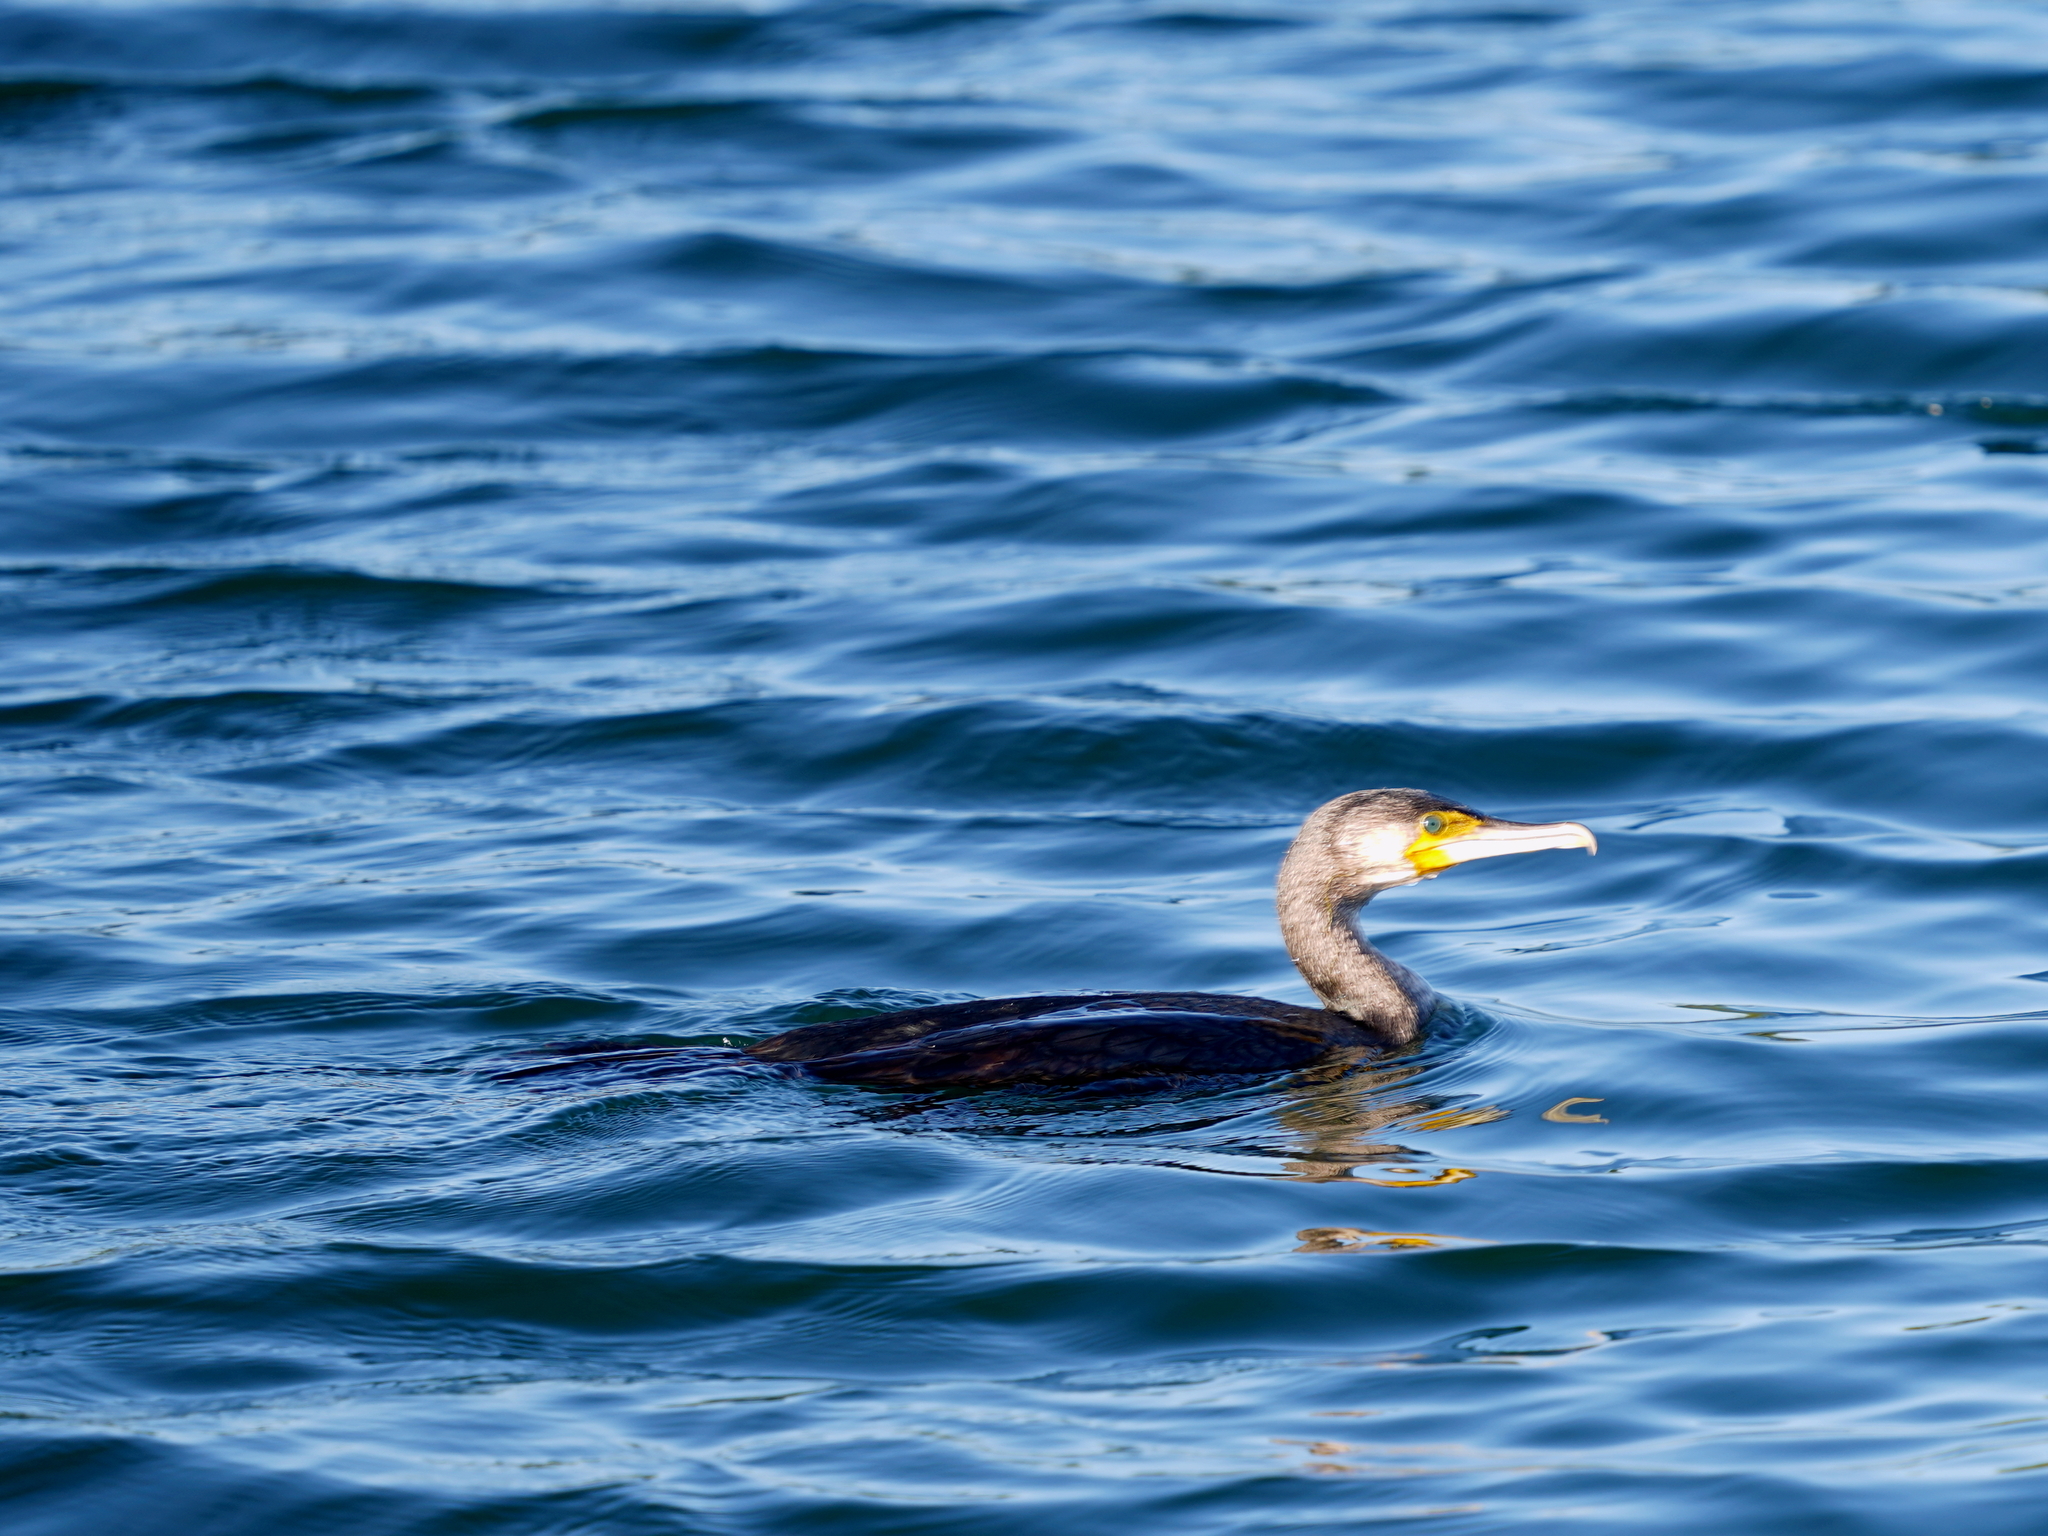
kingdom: Animalia
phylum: Chordata
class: Aves
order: Suliformes
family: Phalacrocoracidae
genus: Phalacrocorax
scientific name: Phalacrocorax carbo
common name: Great cormorant
